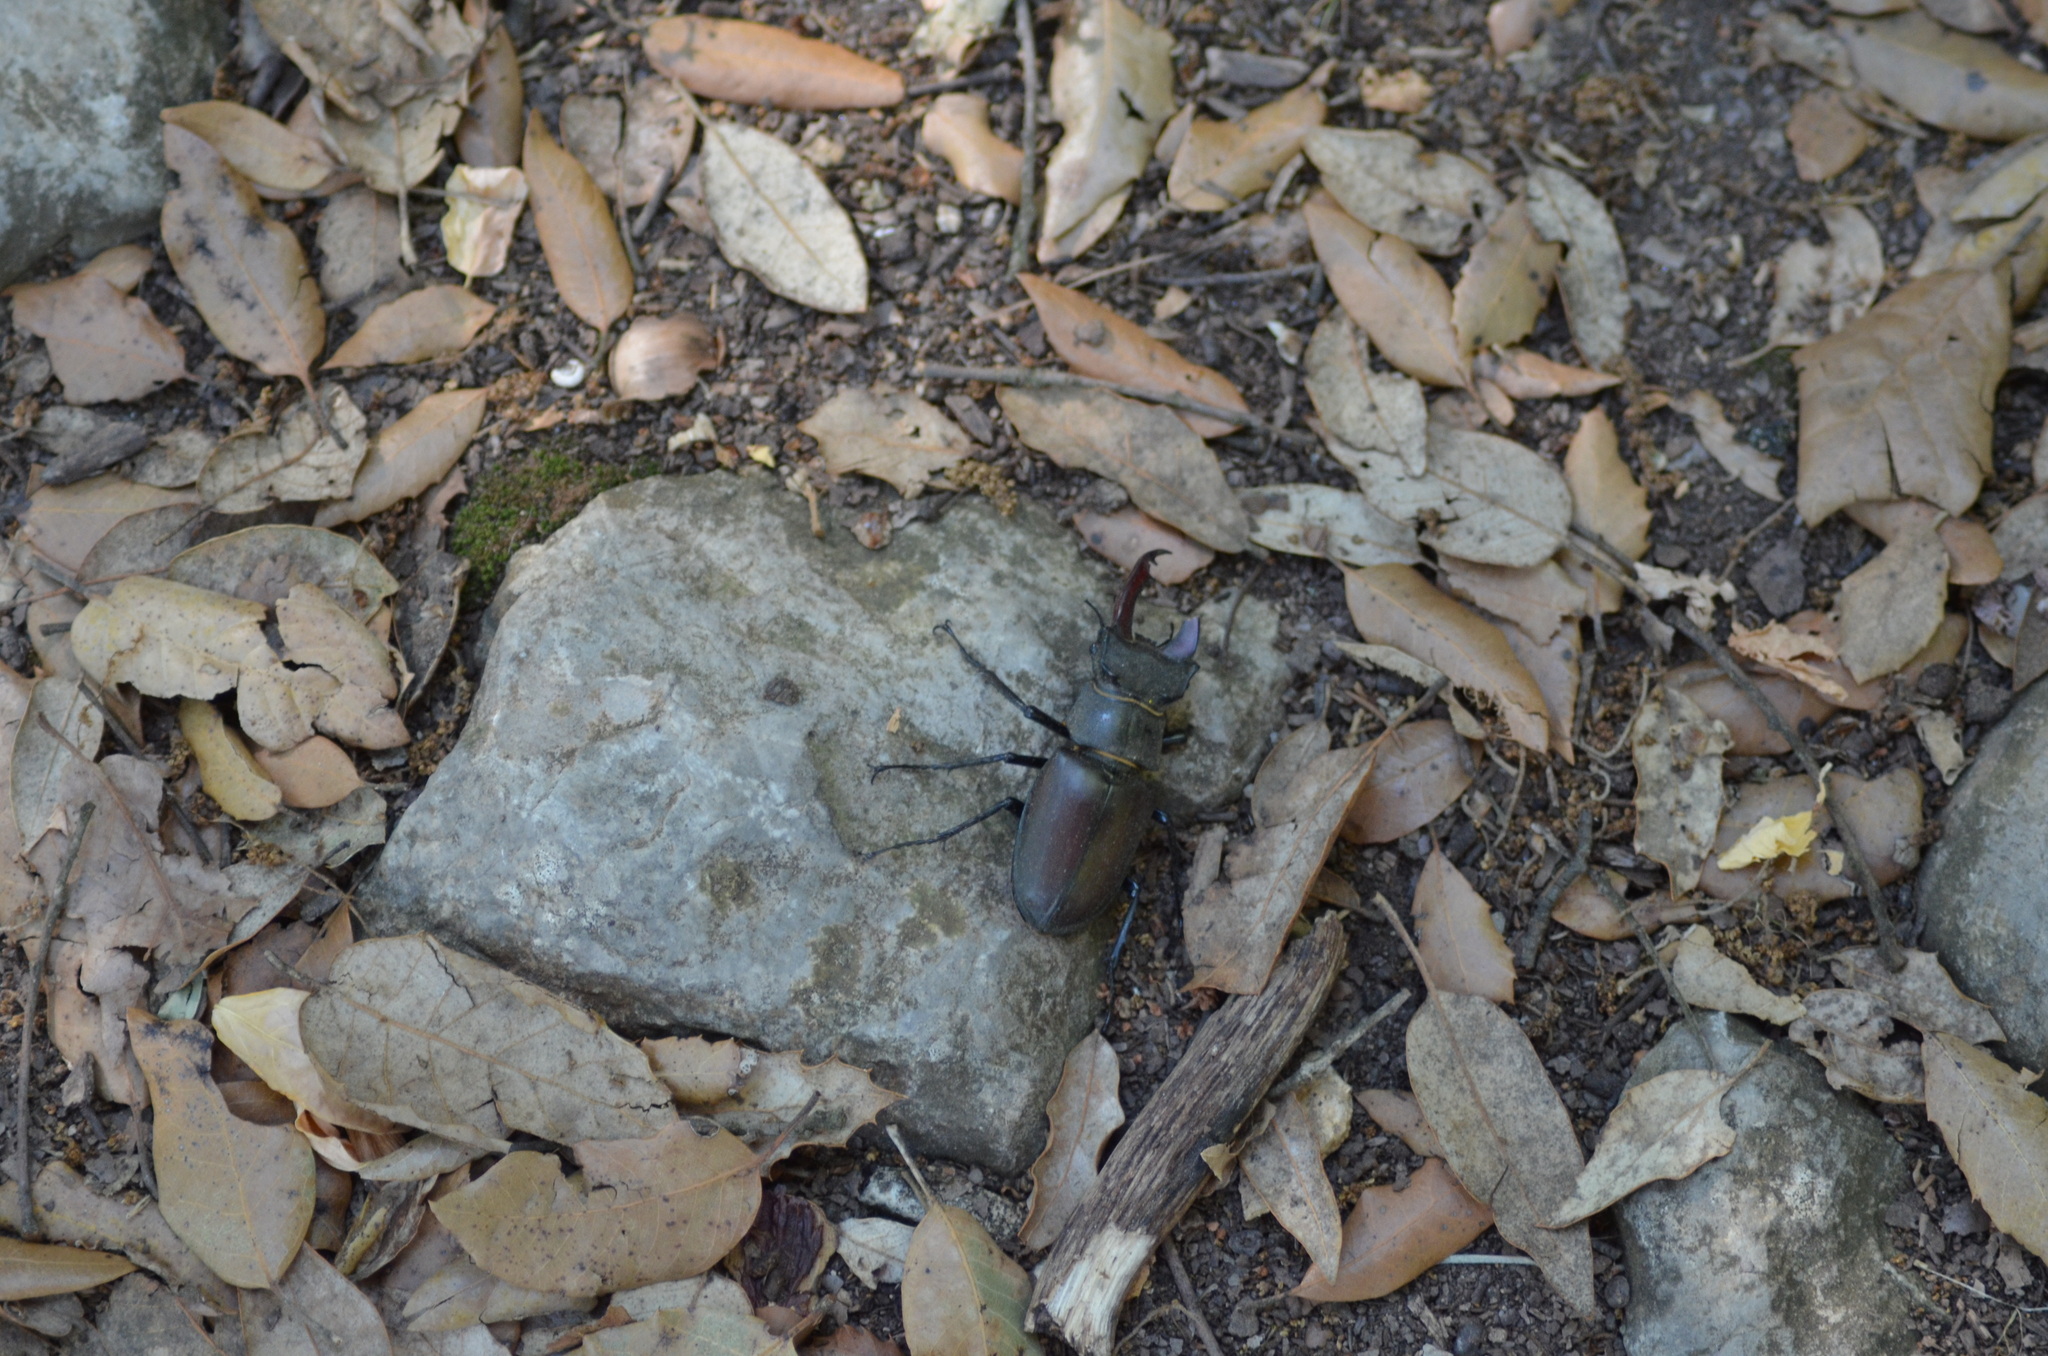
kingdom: Animalia
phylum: Arthropoda
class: Insecta
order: Coleoptera
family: Lucanidae
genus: Lucanus
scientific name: Lucanus cervus
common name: Stag beetle
